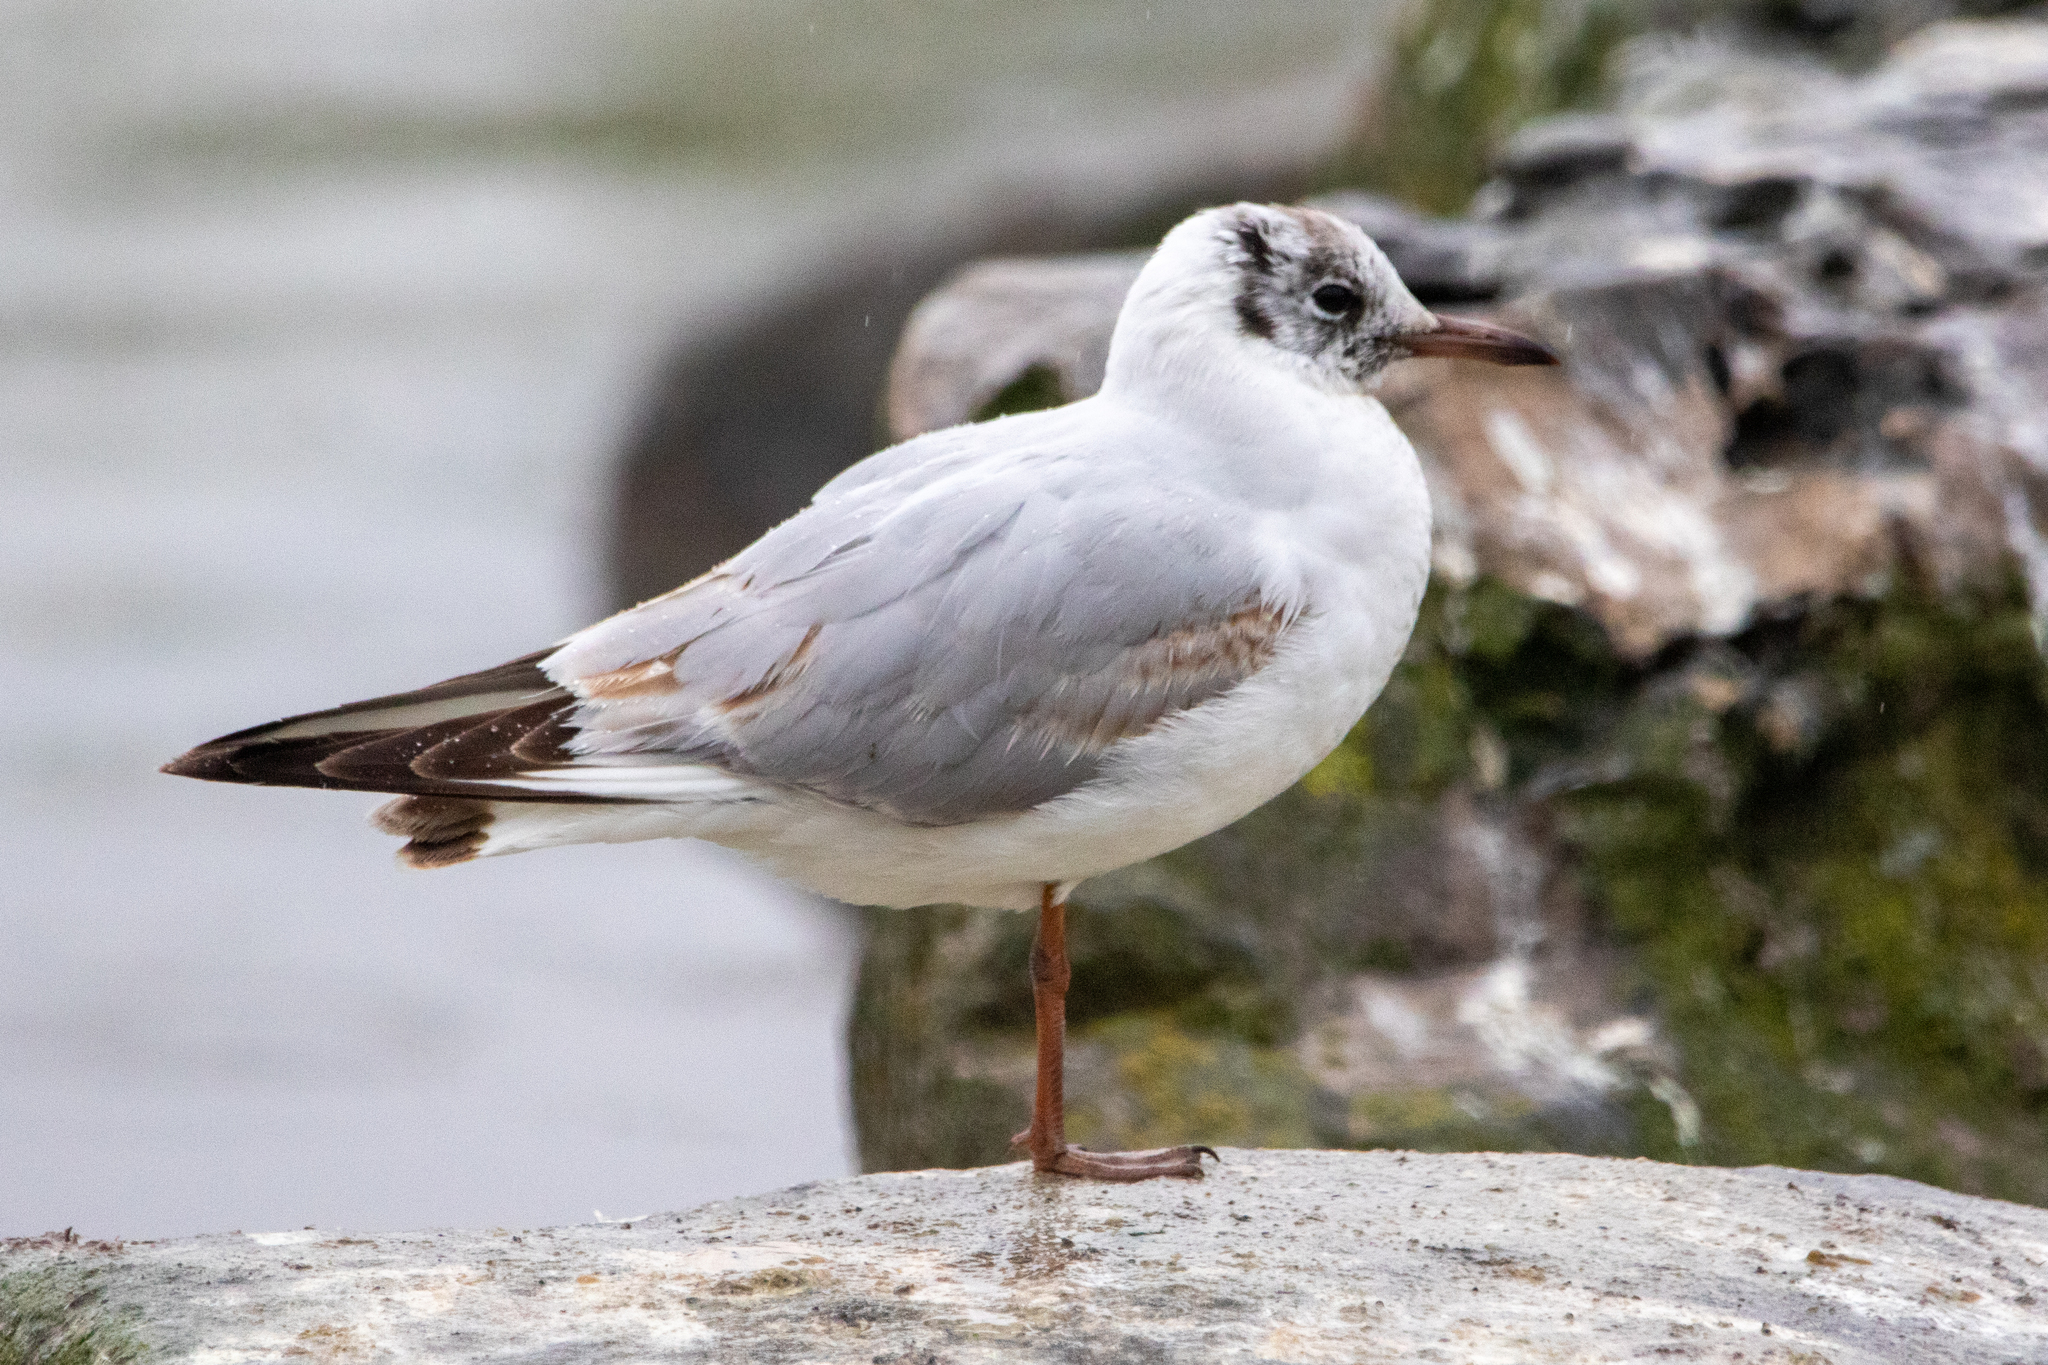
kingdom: Animalia
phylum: Chordata
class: Aves
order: Charadriiformes
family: Laridae
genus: Chroicocephalus
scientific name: Chroicocephalus ridibundus
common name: Black-headed gull
